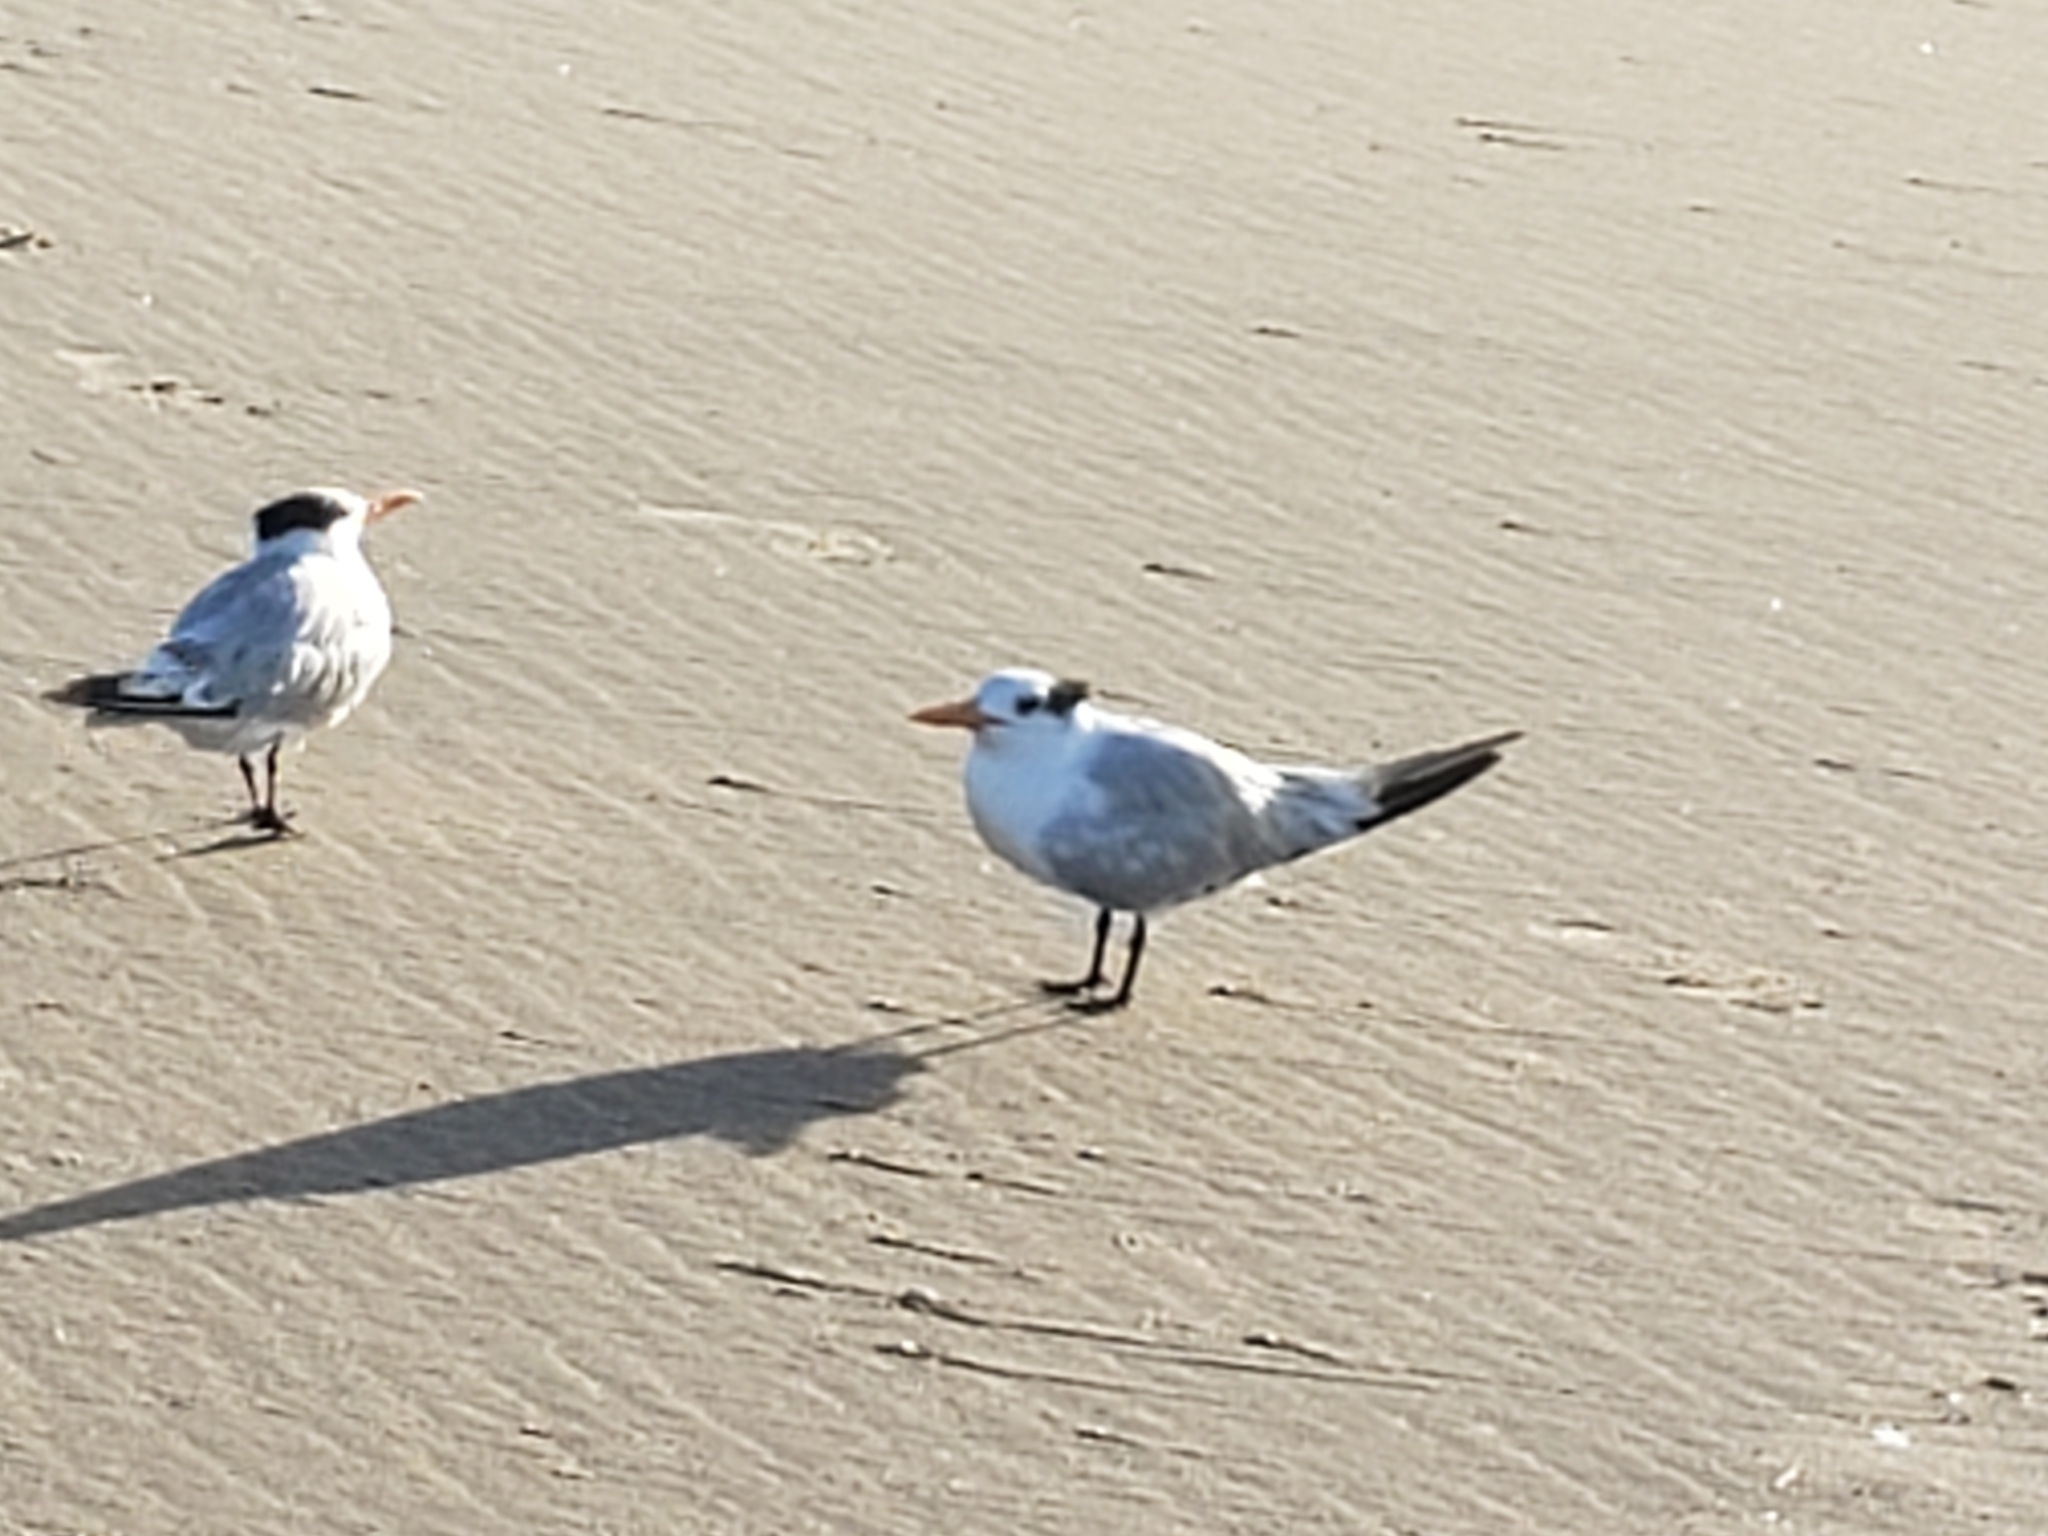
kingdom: Animalia
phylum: Chordata
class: Aves
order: Charadriiformes
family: Laridae
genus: Thalasseus
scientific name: Thalasseus maximus
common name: Royal tern
